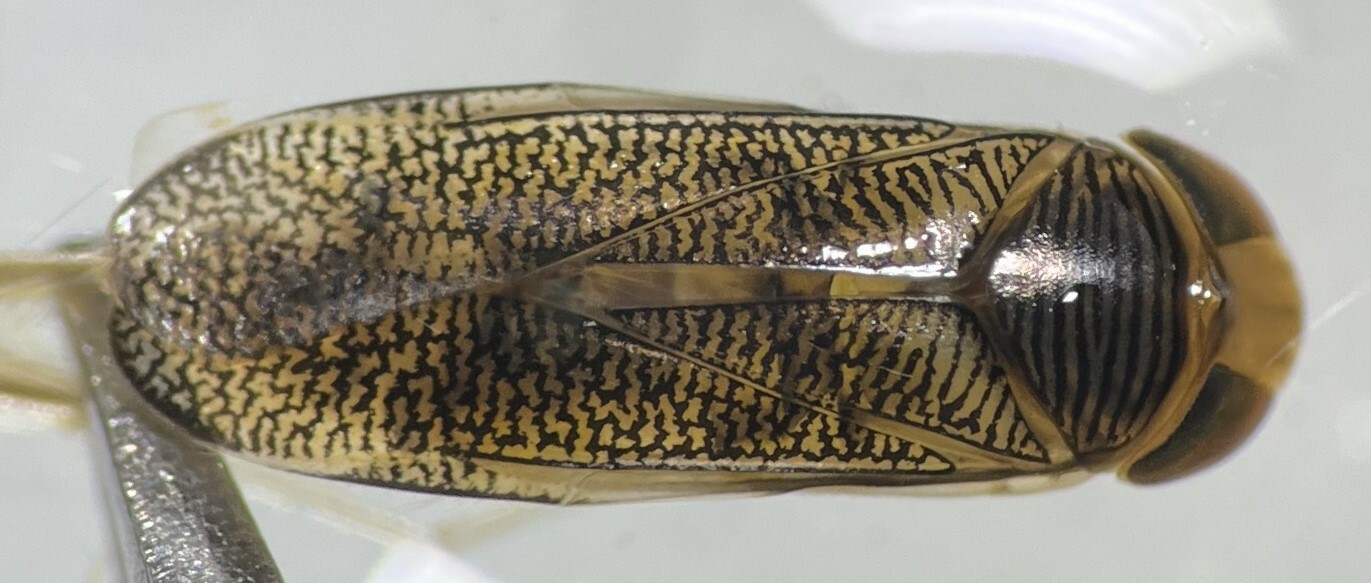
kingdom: Animalia
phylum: Arthropoda
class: Insecta
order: Hemiptera
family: Corixidae
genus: Trichocorixa
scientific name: Trichocorixa verticalis
